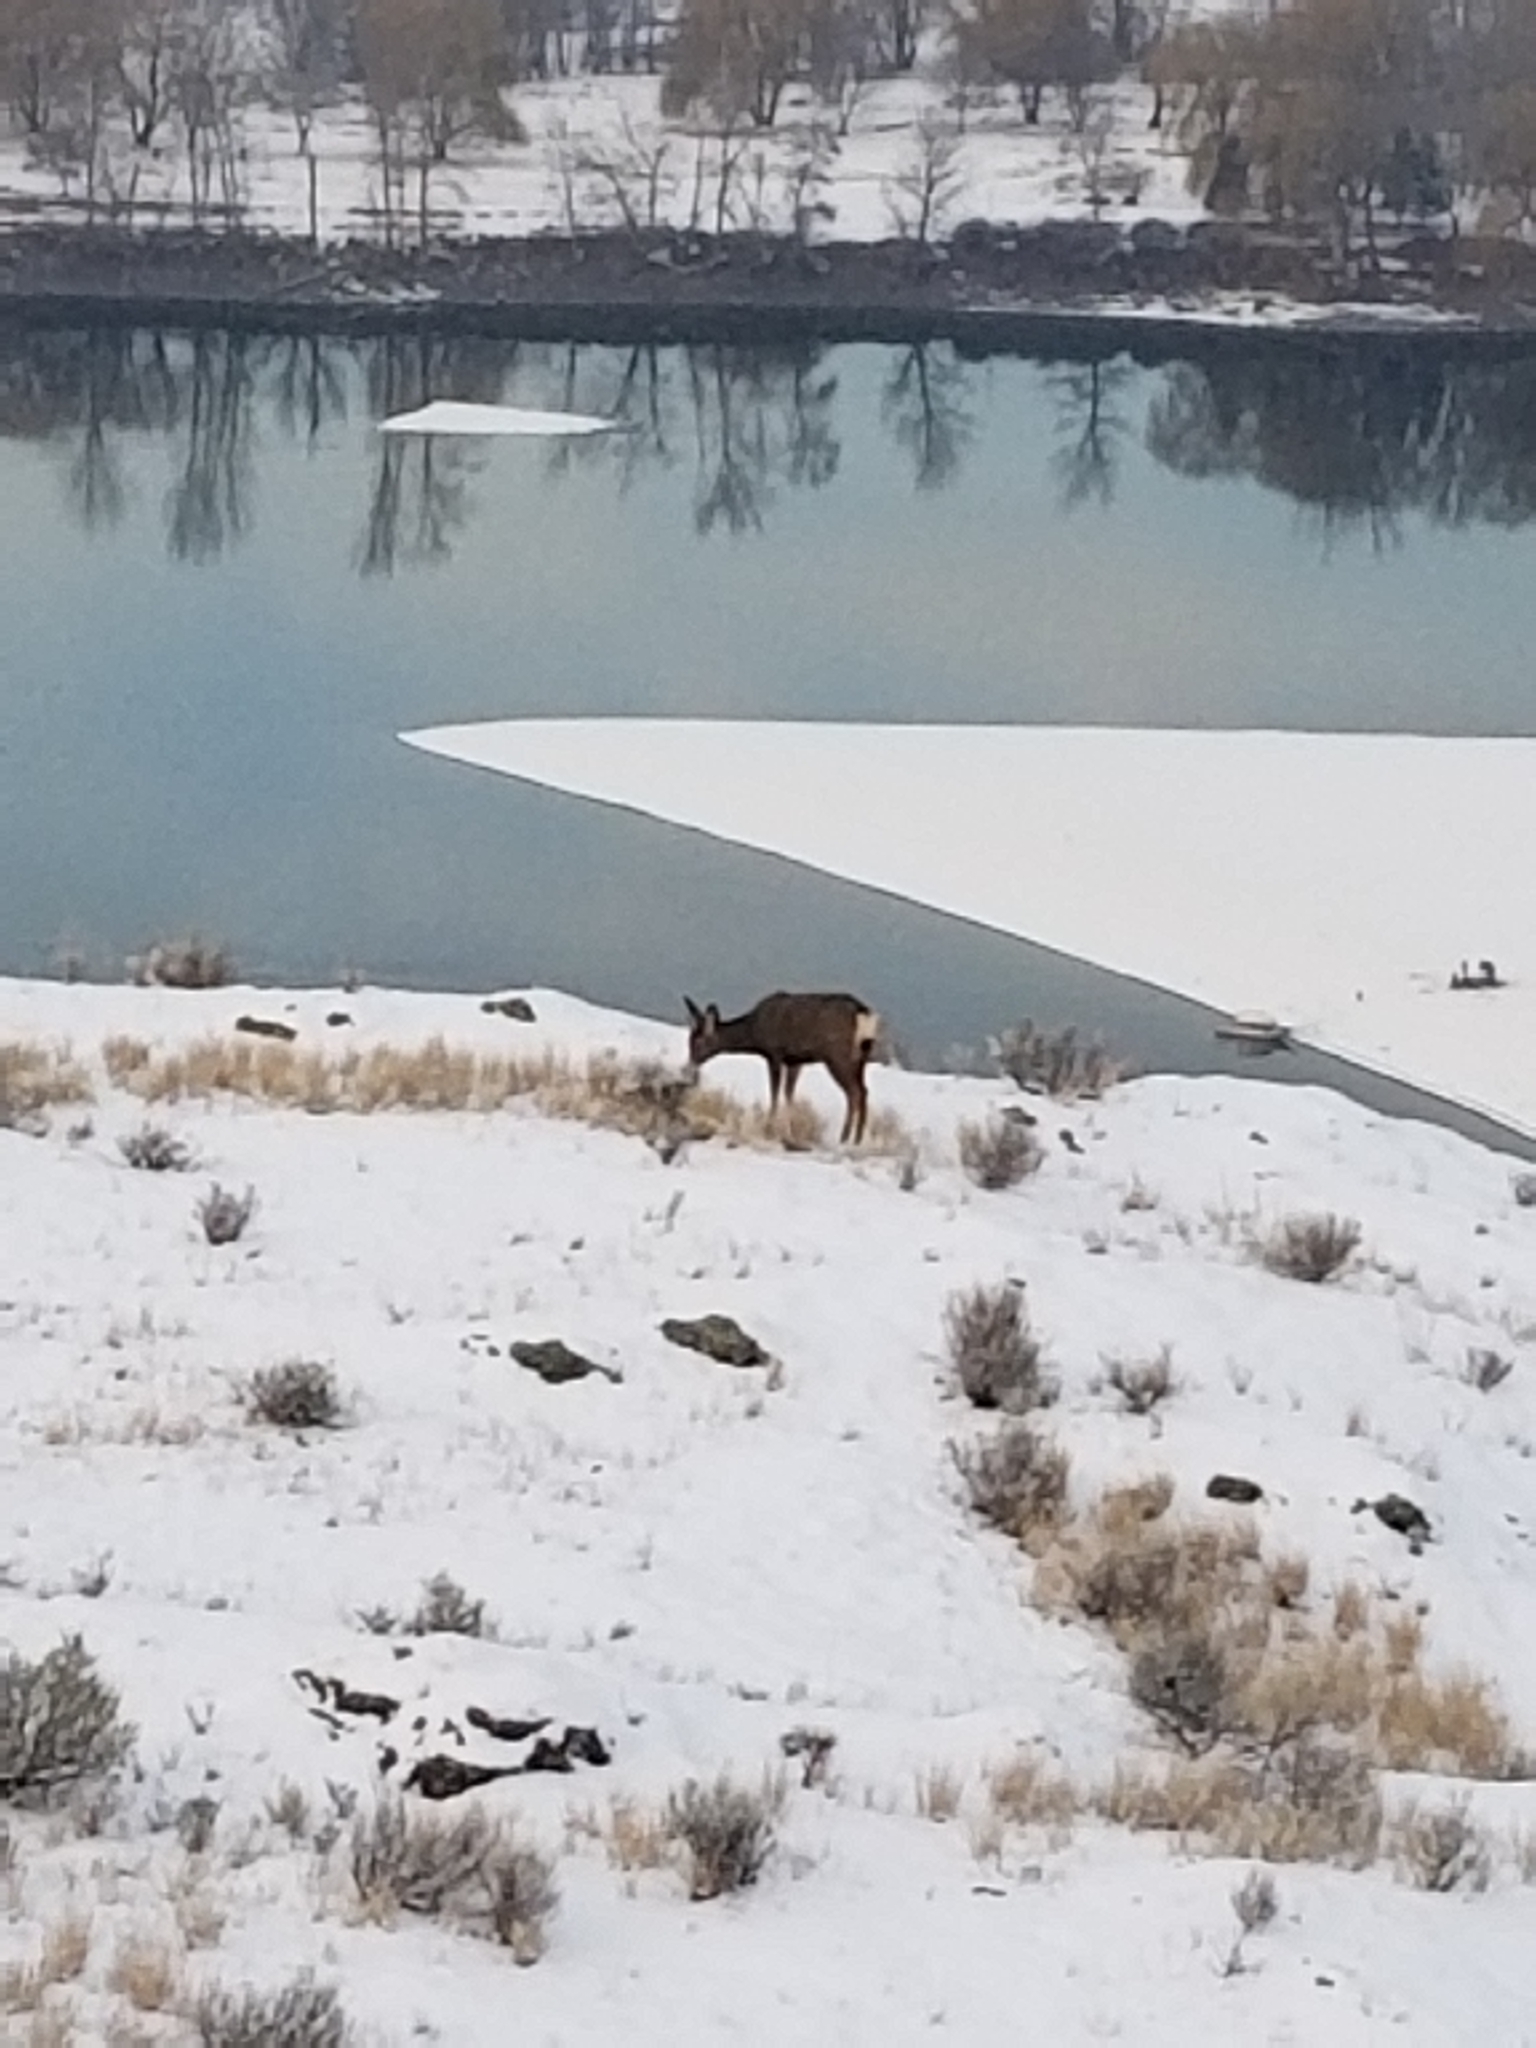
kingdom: Animalia
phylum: Chordata
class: Mammalia
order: Artiodactyla
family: Cervidae
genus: Odocoileus
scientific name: Odocoileus hemionus
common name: Mule deer
